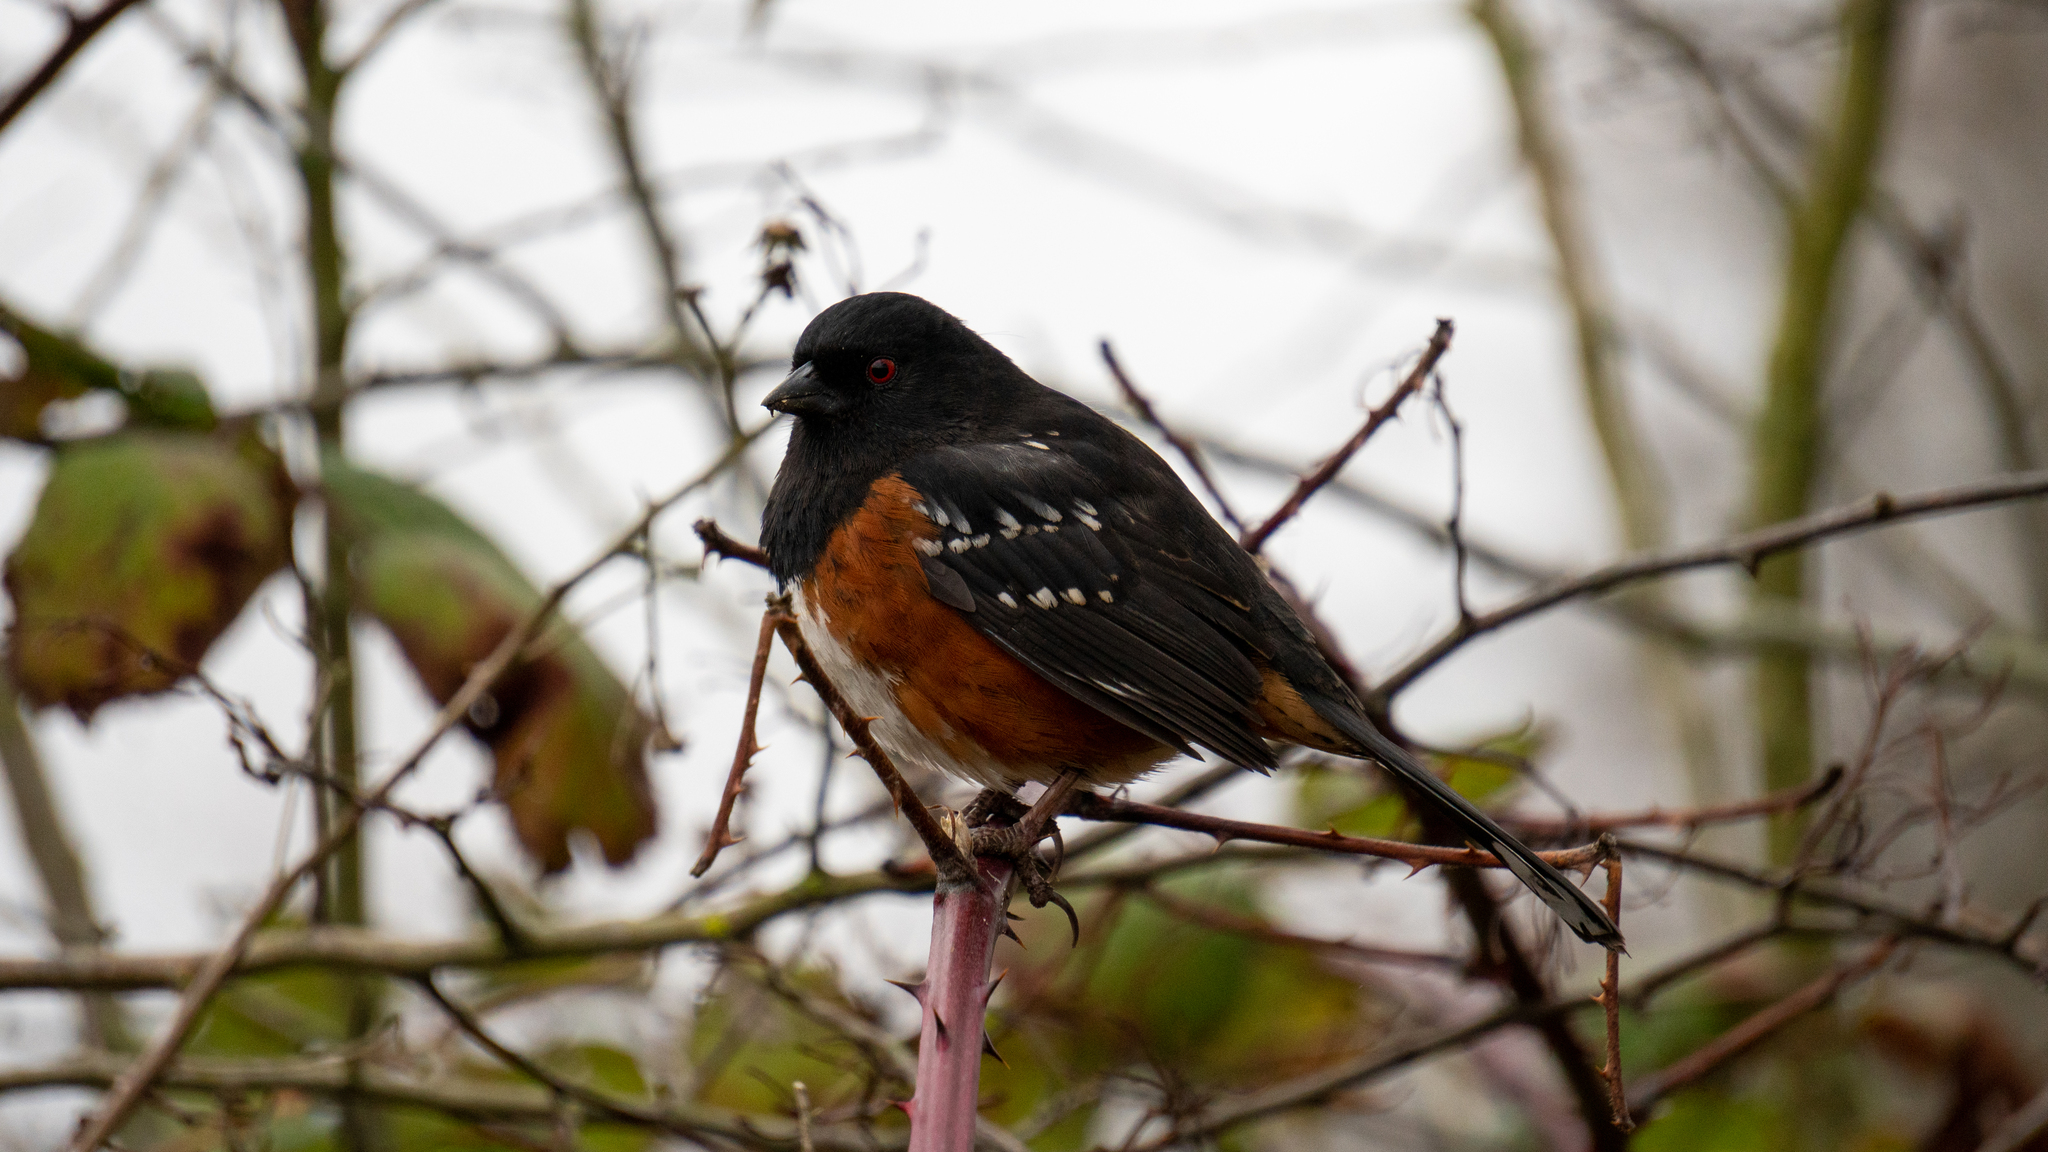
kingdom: Animalia
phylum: Chordata
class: Aves
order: Passeriformes
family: Passerellidae
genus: Pipilo
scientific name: Pipilo maculatus
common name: Spotted towhee
